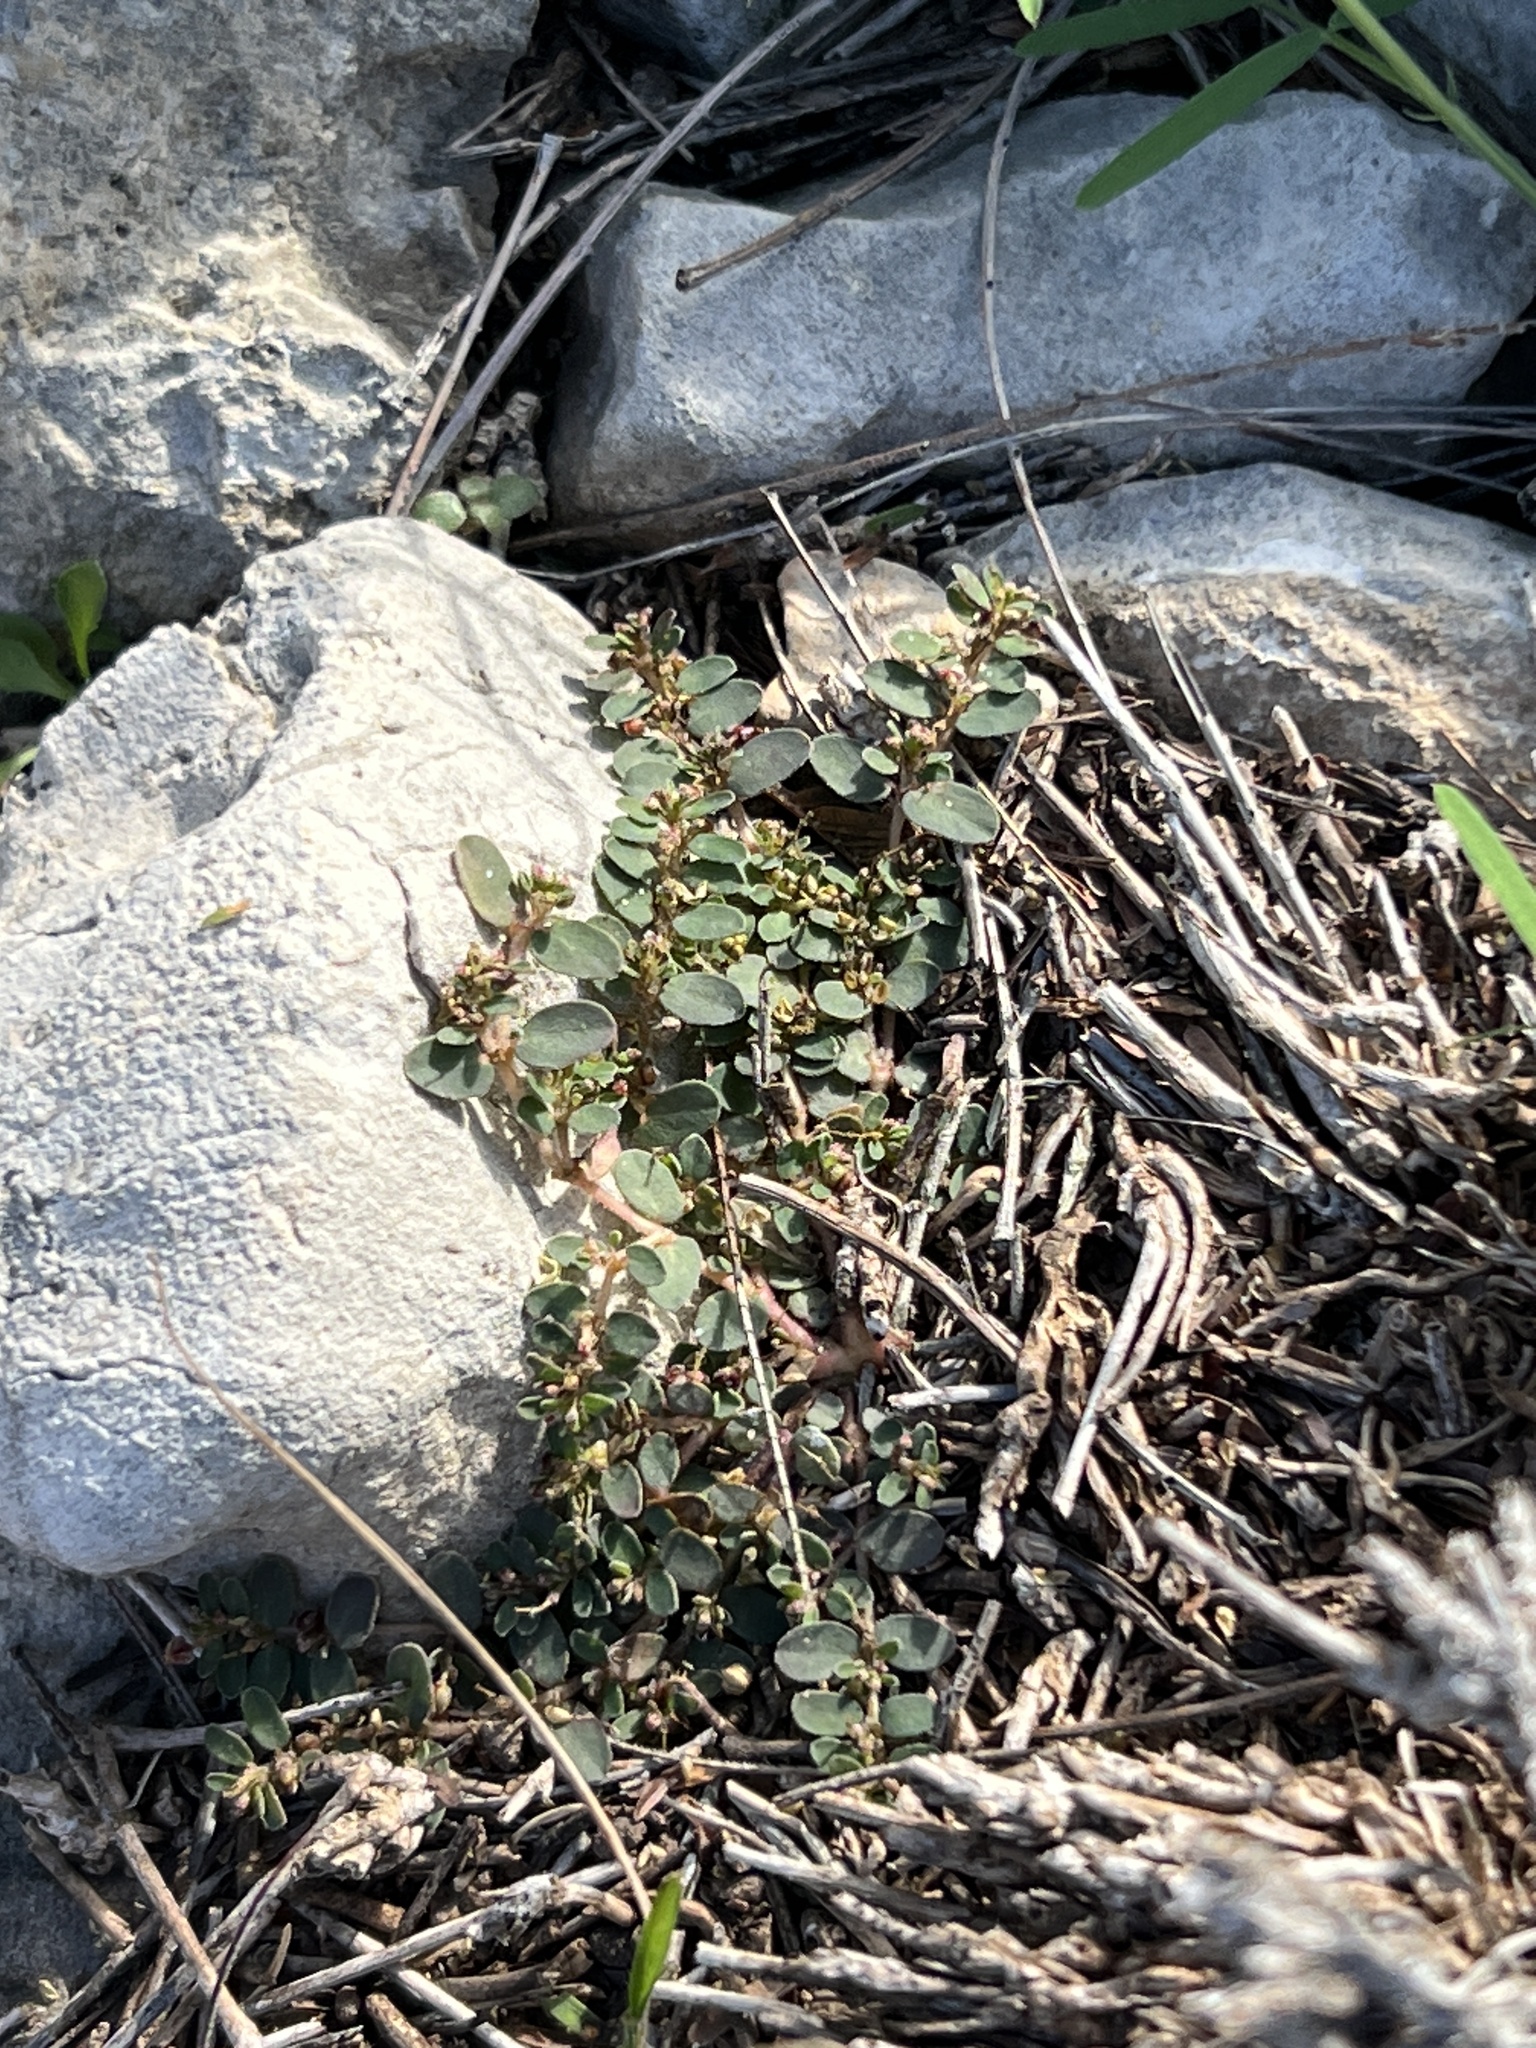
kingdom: Plantae
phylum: Tracheophyta
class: Magnoliopsida
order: Malpighiales
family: Euphorbiaceae
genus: Euphorbia
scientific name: Euphorbia prostrata
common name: Prostrate sandmat
